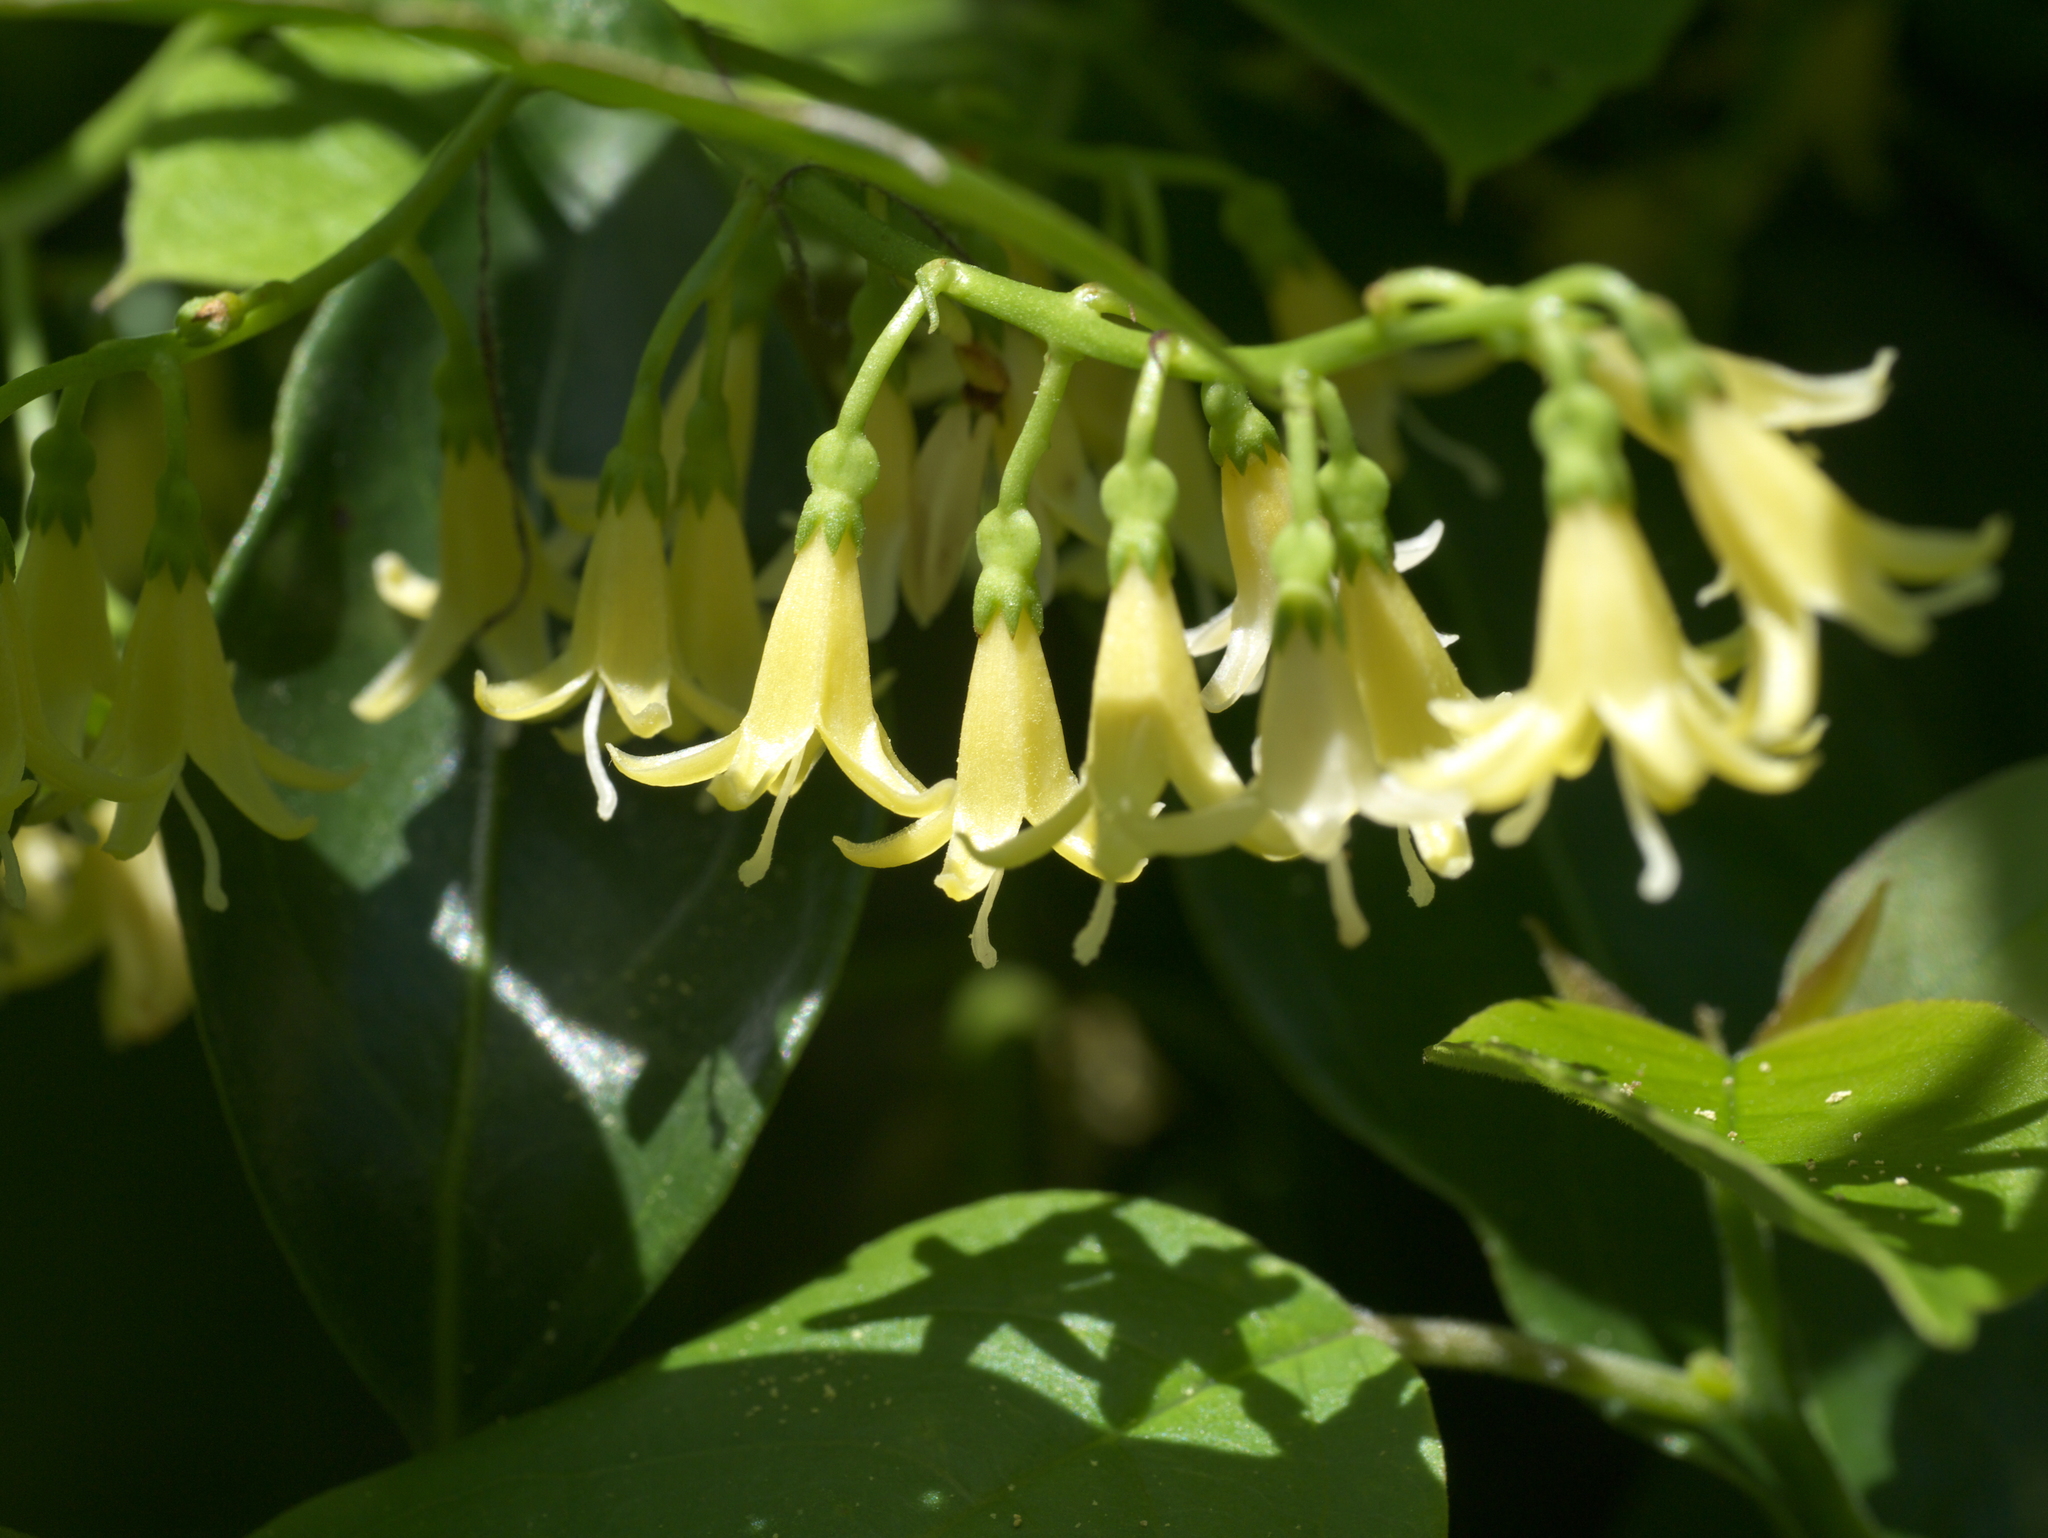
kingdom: Plantae
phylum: Tracheophyta
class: Magnoliopsida
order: Gentianales
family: Rubiaceae
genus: Chiococca
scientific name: Chiococca alba
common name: Snowberry
